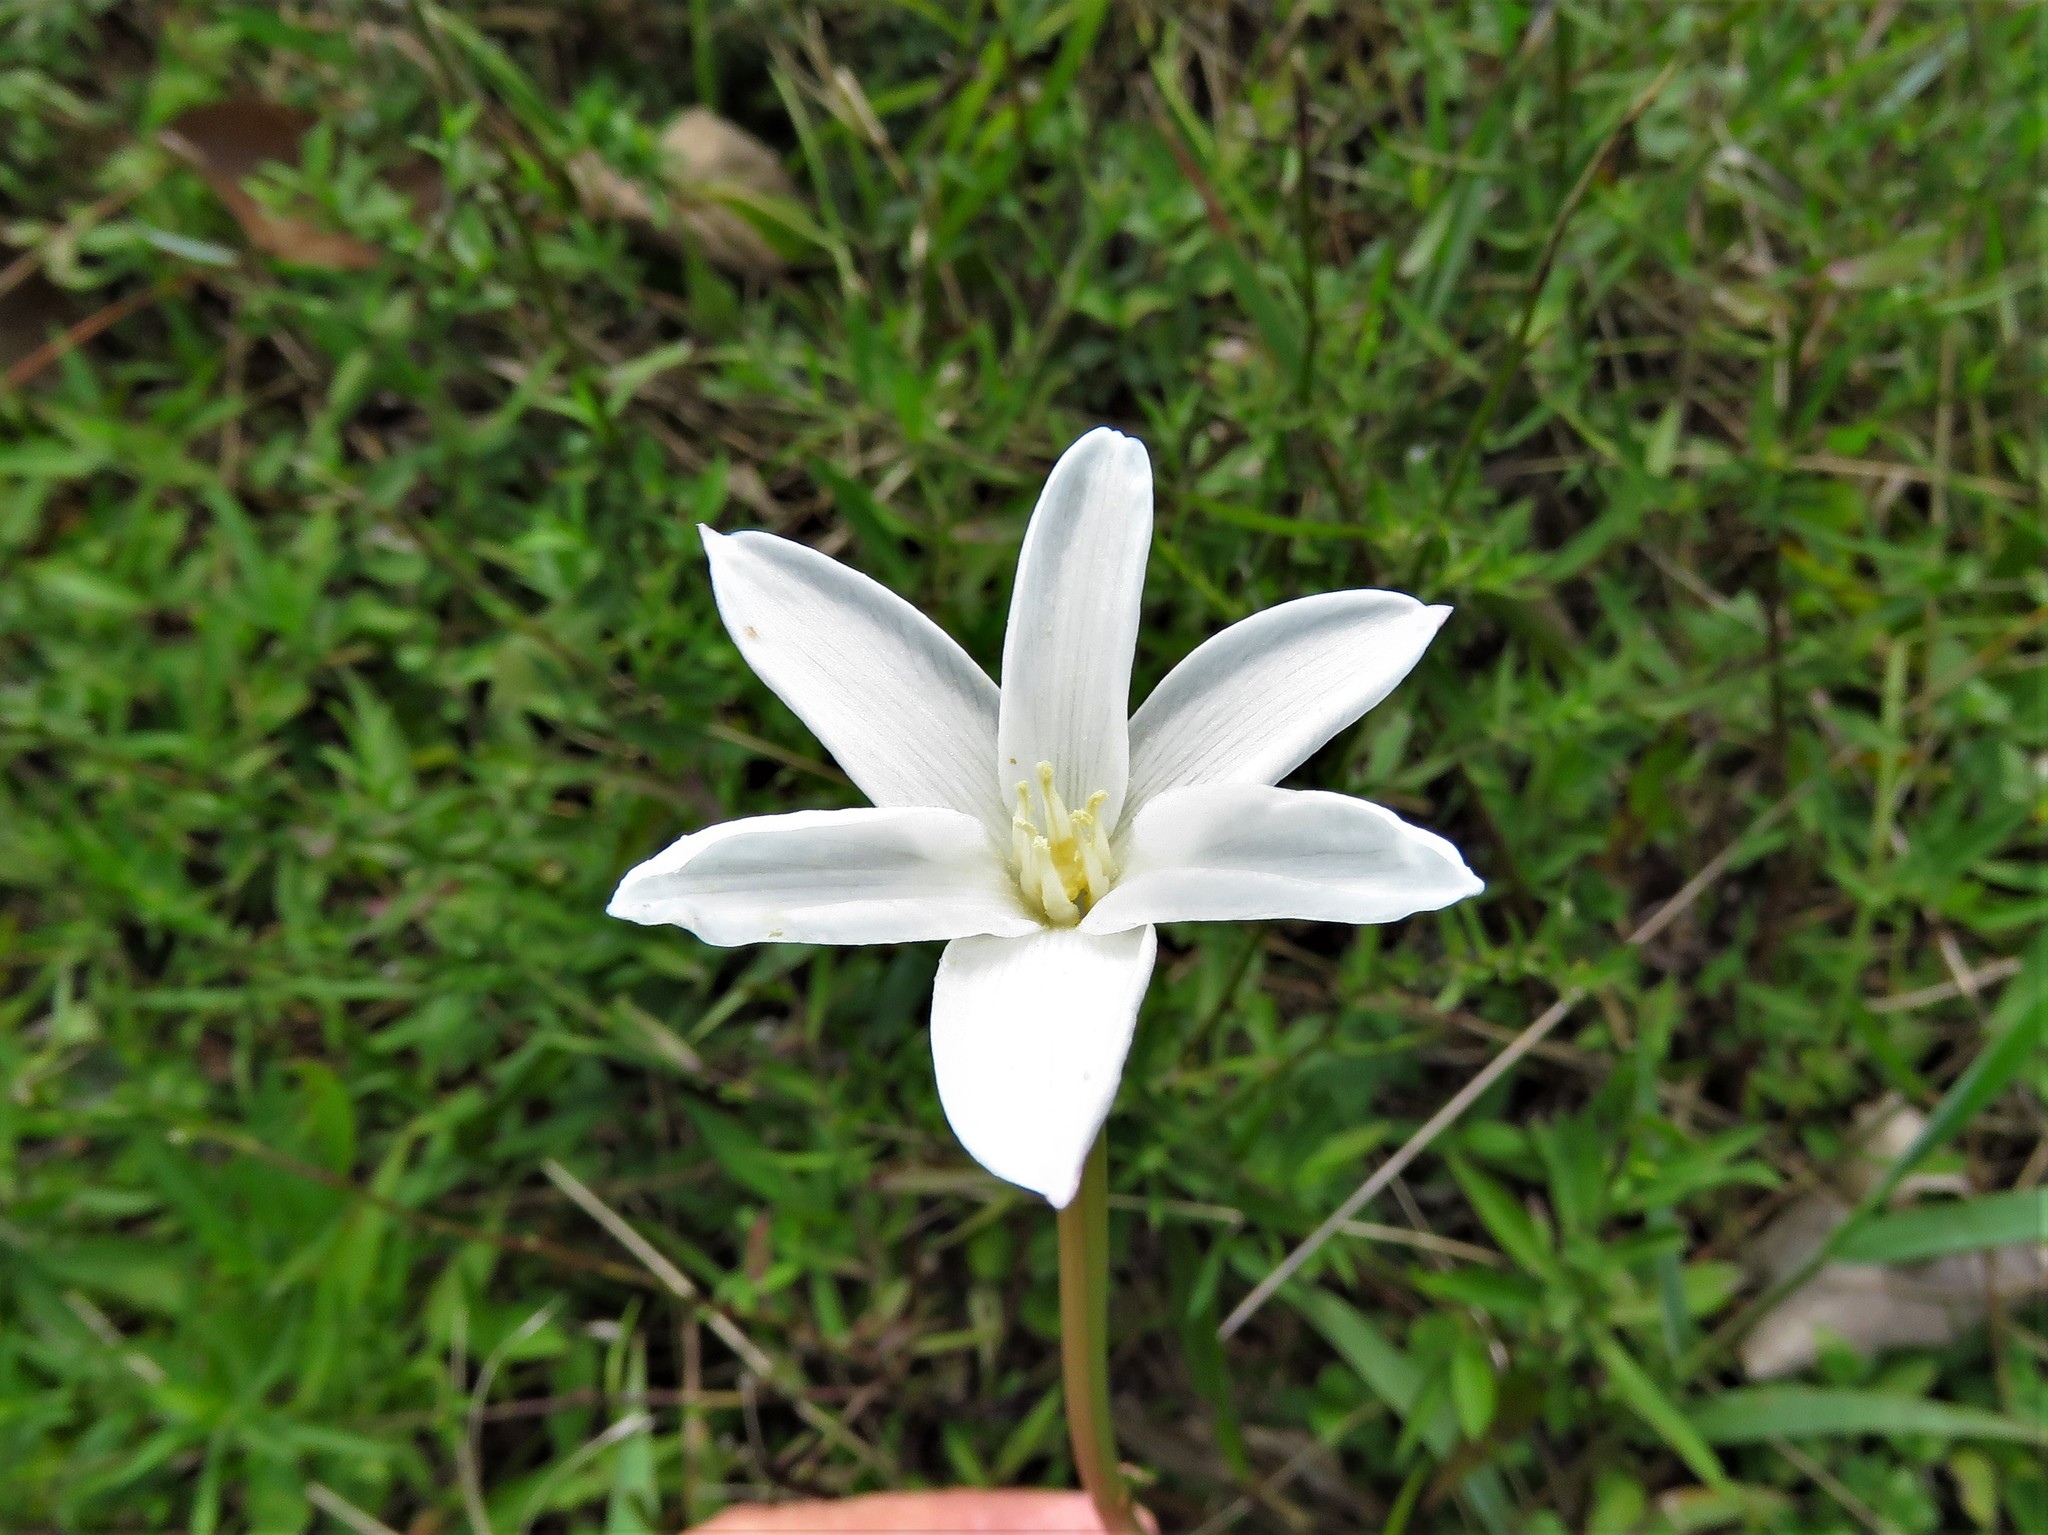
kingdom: Plantae
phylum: Tracheophyta
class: Liliopsida
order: Asparagales
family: Amaryllidaceae
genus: Zephyranthes
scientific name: Zephyranthes chlorosolen
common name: Evening rain-lily
